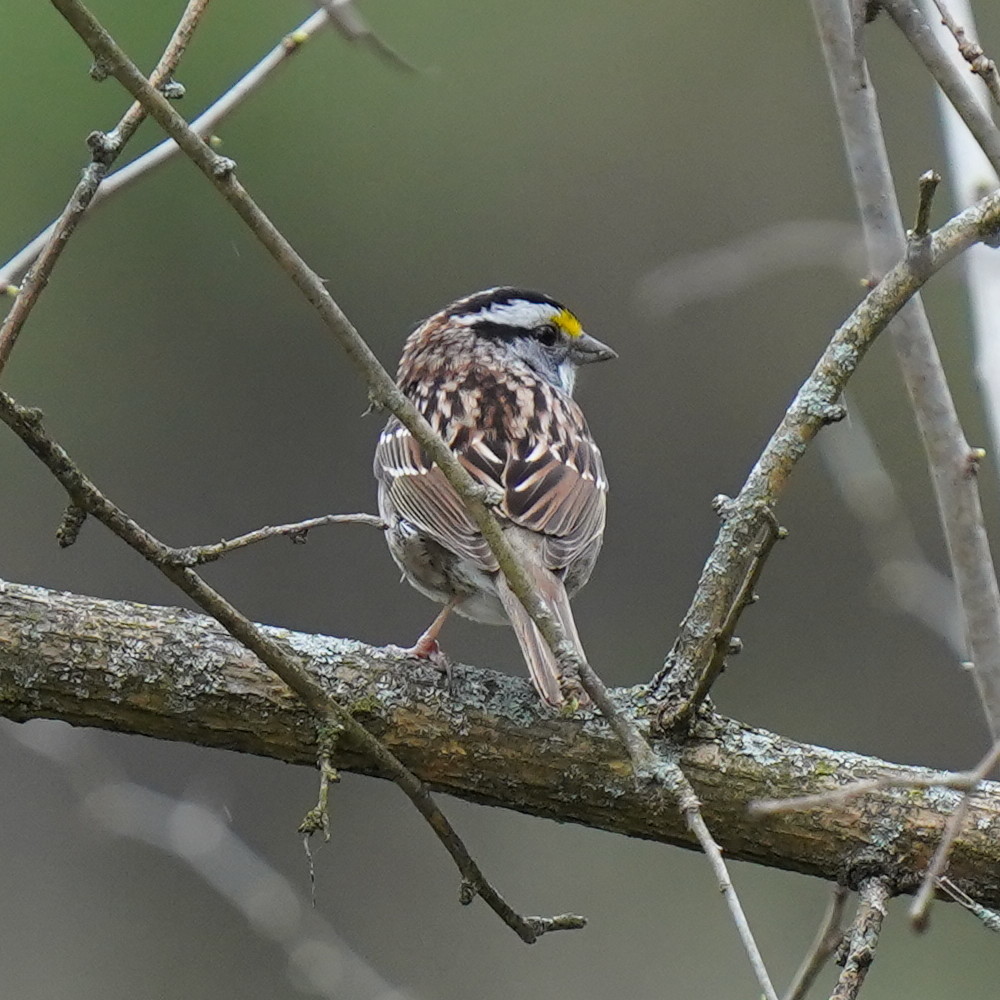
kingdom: Animalia
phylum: Chordata
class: Aves
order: Passeriformes
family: Passerellidae
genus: Zonotrichia
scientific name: Zonotrichia albicollis
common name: White-throated sparrow
